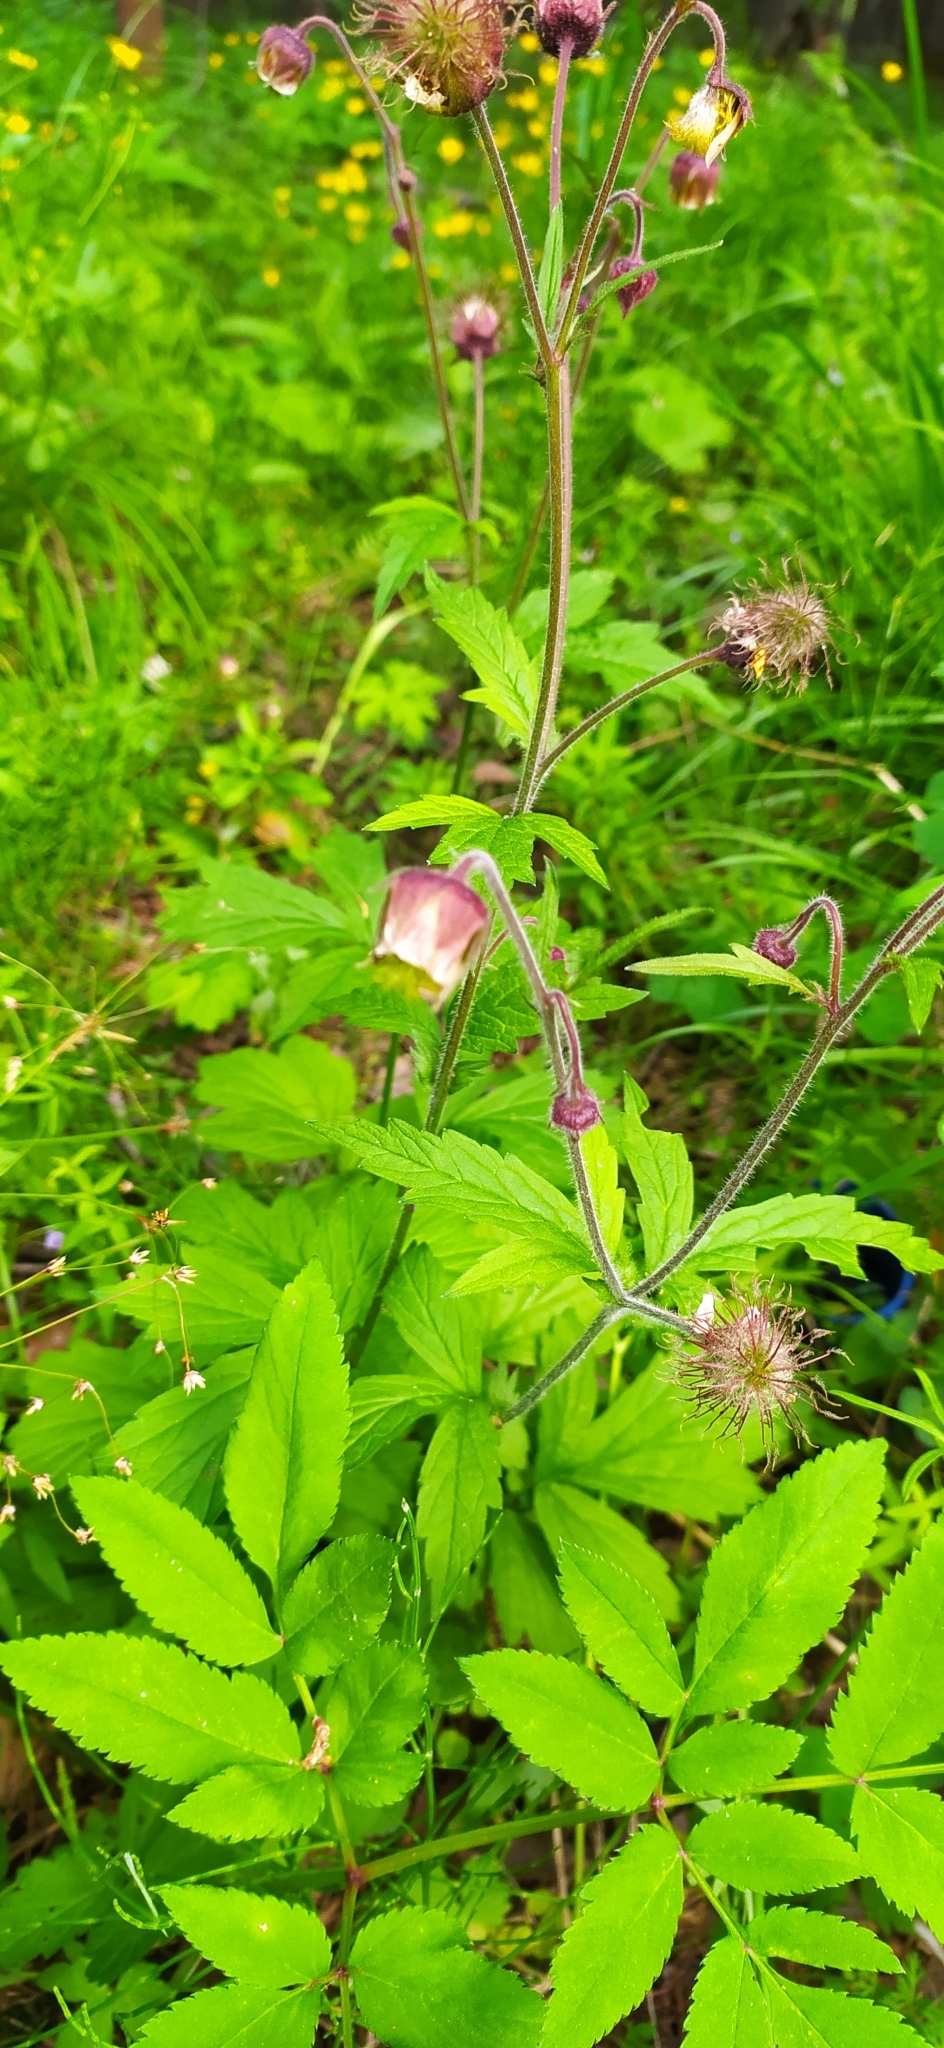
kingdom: Plantae
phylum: Tracheophyta
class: Magnoliopsida
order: Rosales
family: Rosaceae
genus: Geum
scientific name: Geum rivale
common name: Water avens
